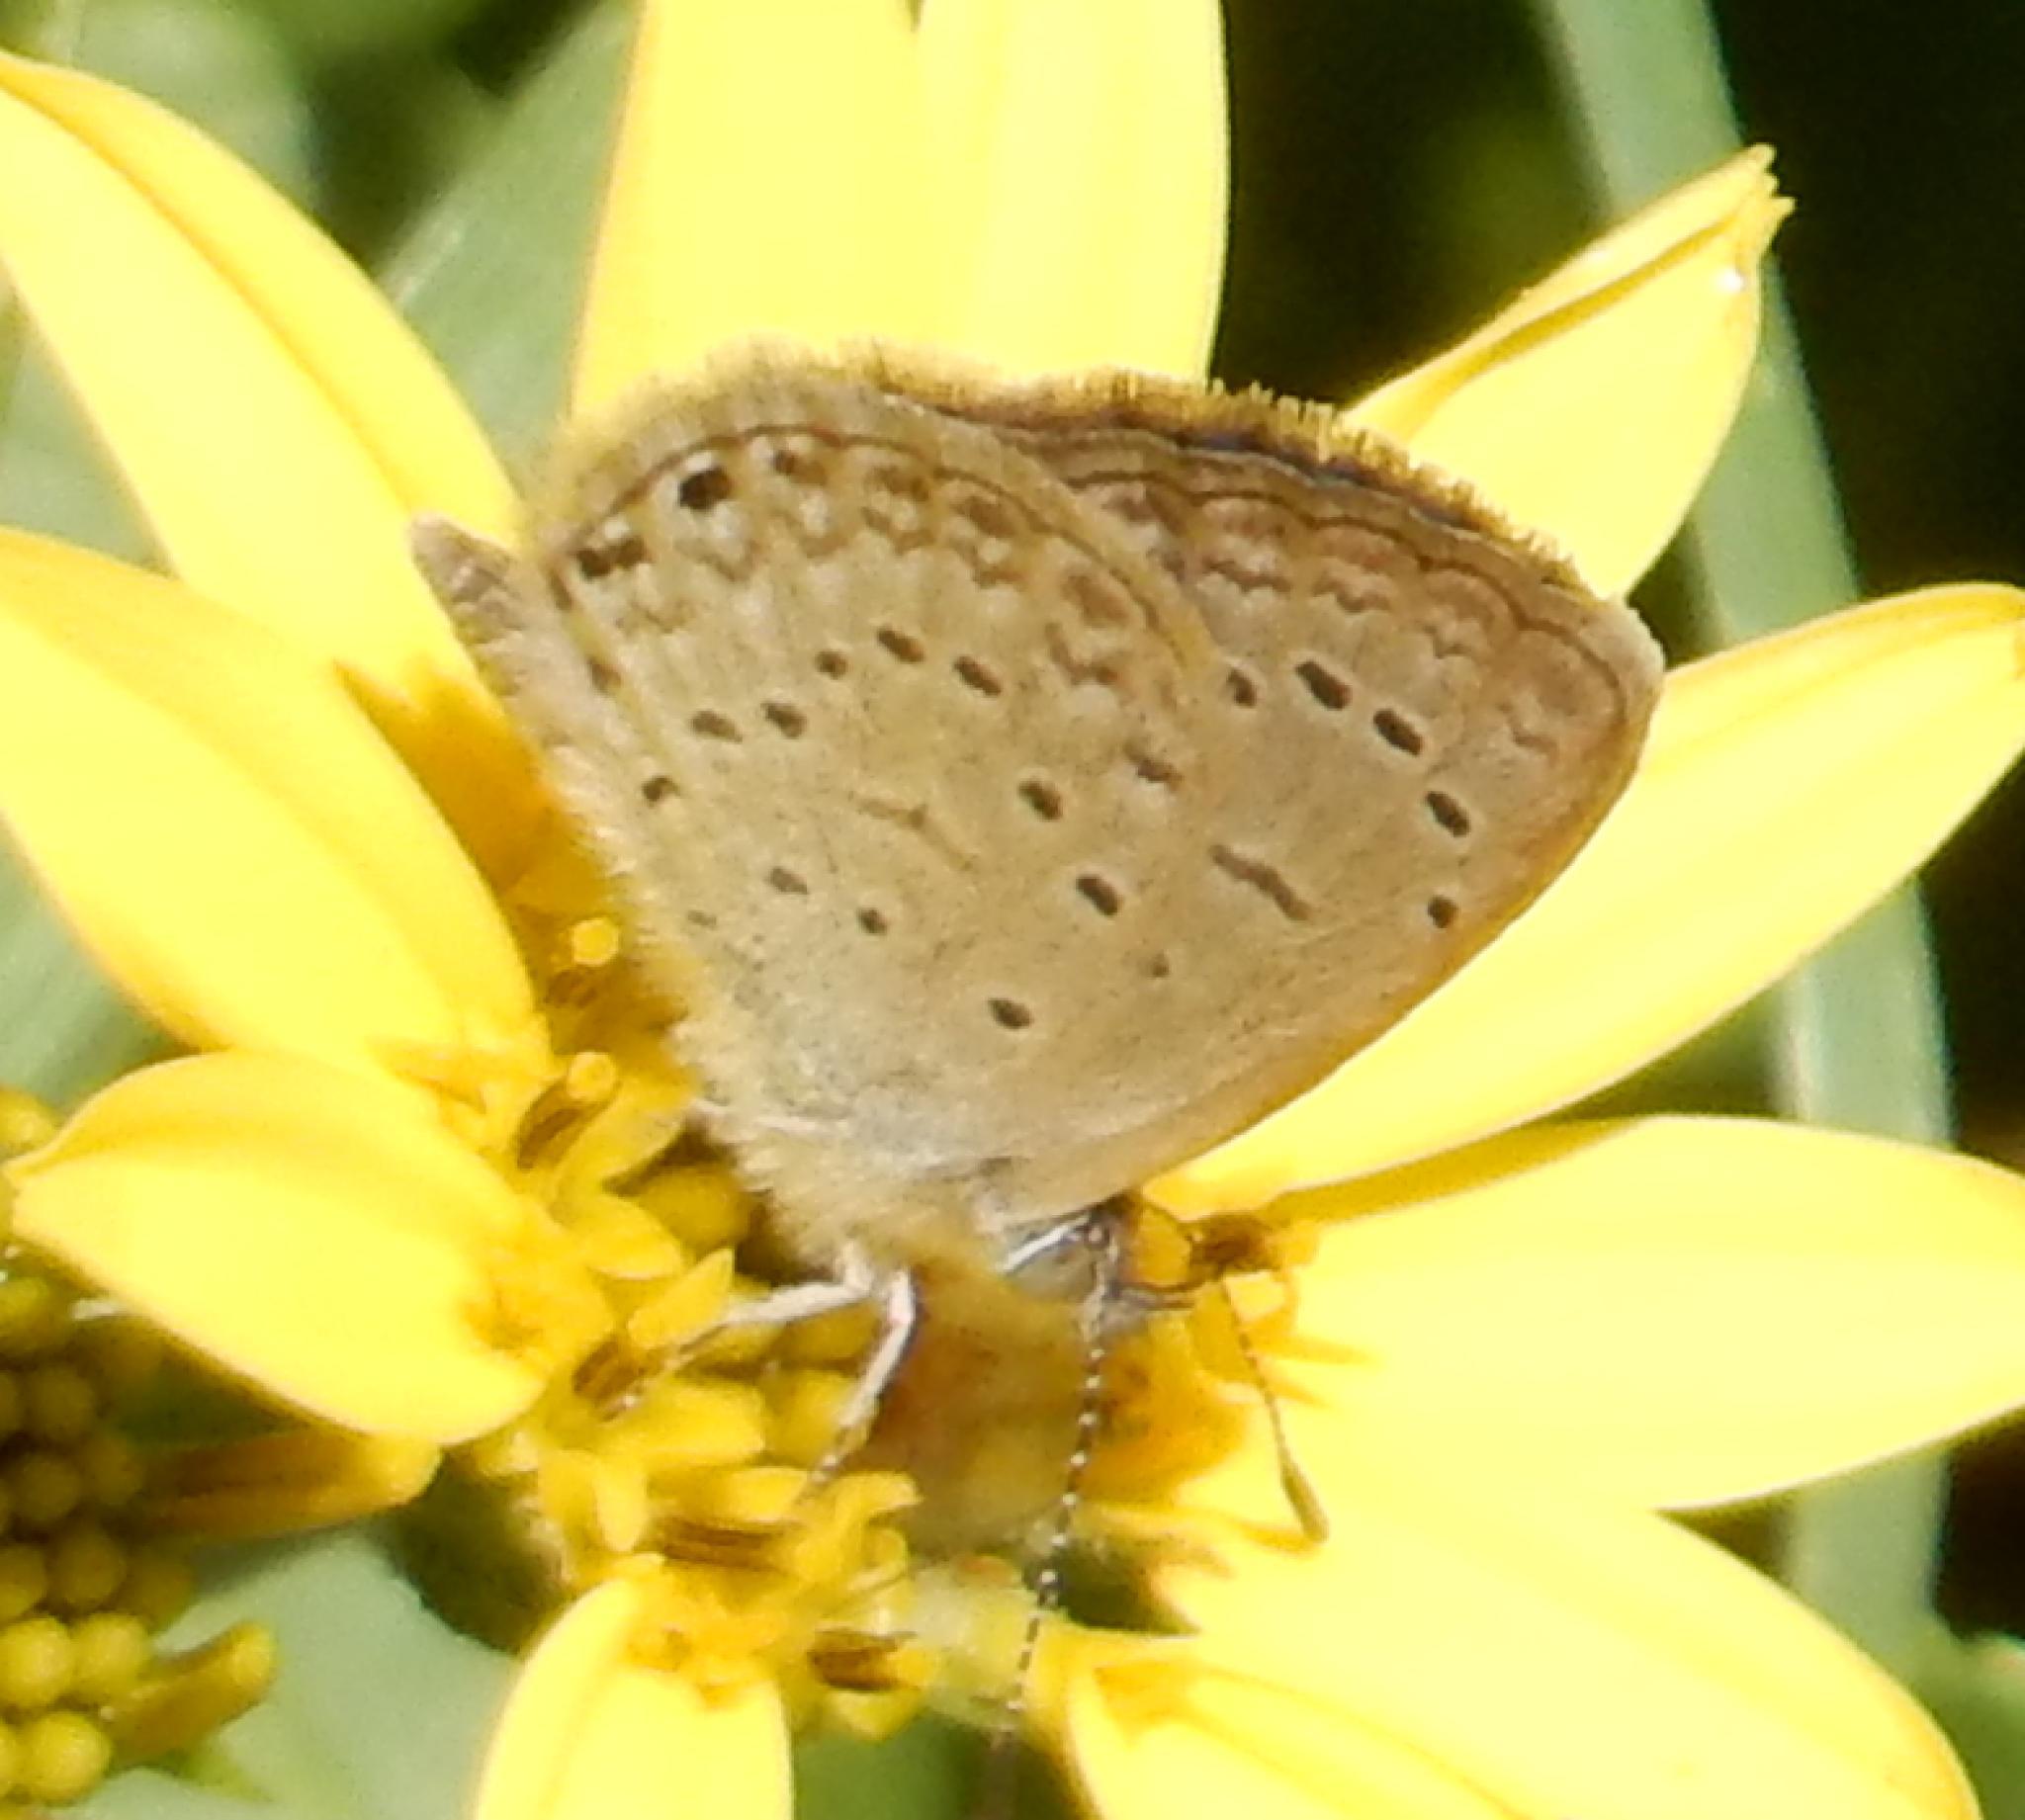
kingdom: Animalia
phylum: Arthropoda
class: Insecta
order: Lepidoptera
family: Lycaenidae
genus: Zizeeria
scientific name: Zizeeria knysna
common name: African grass blue
